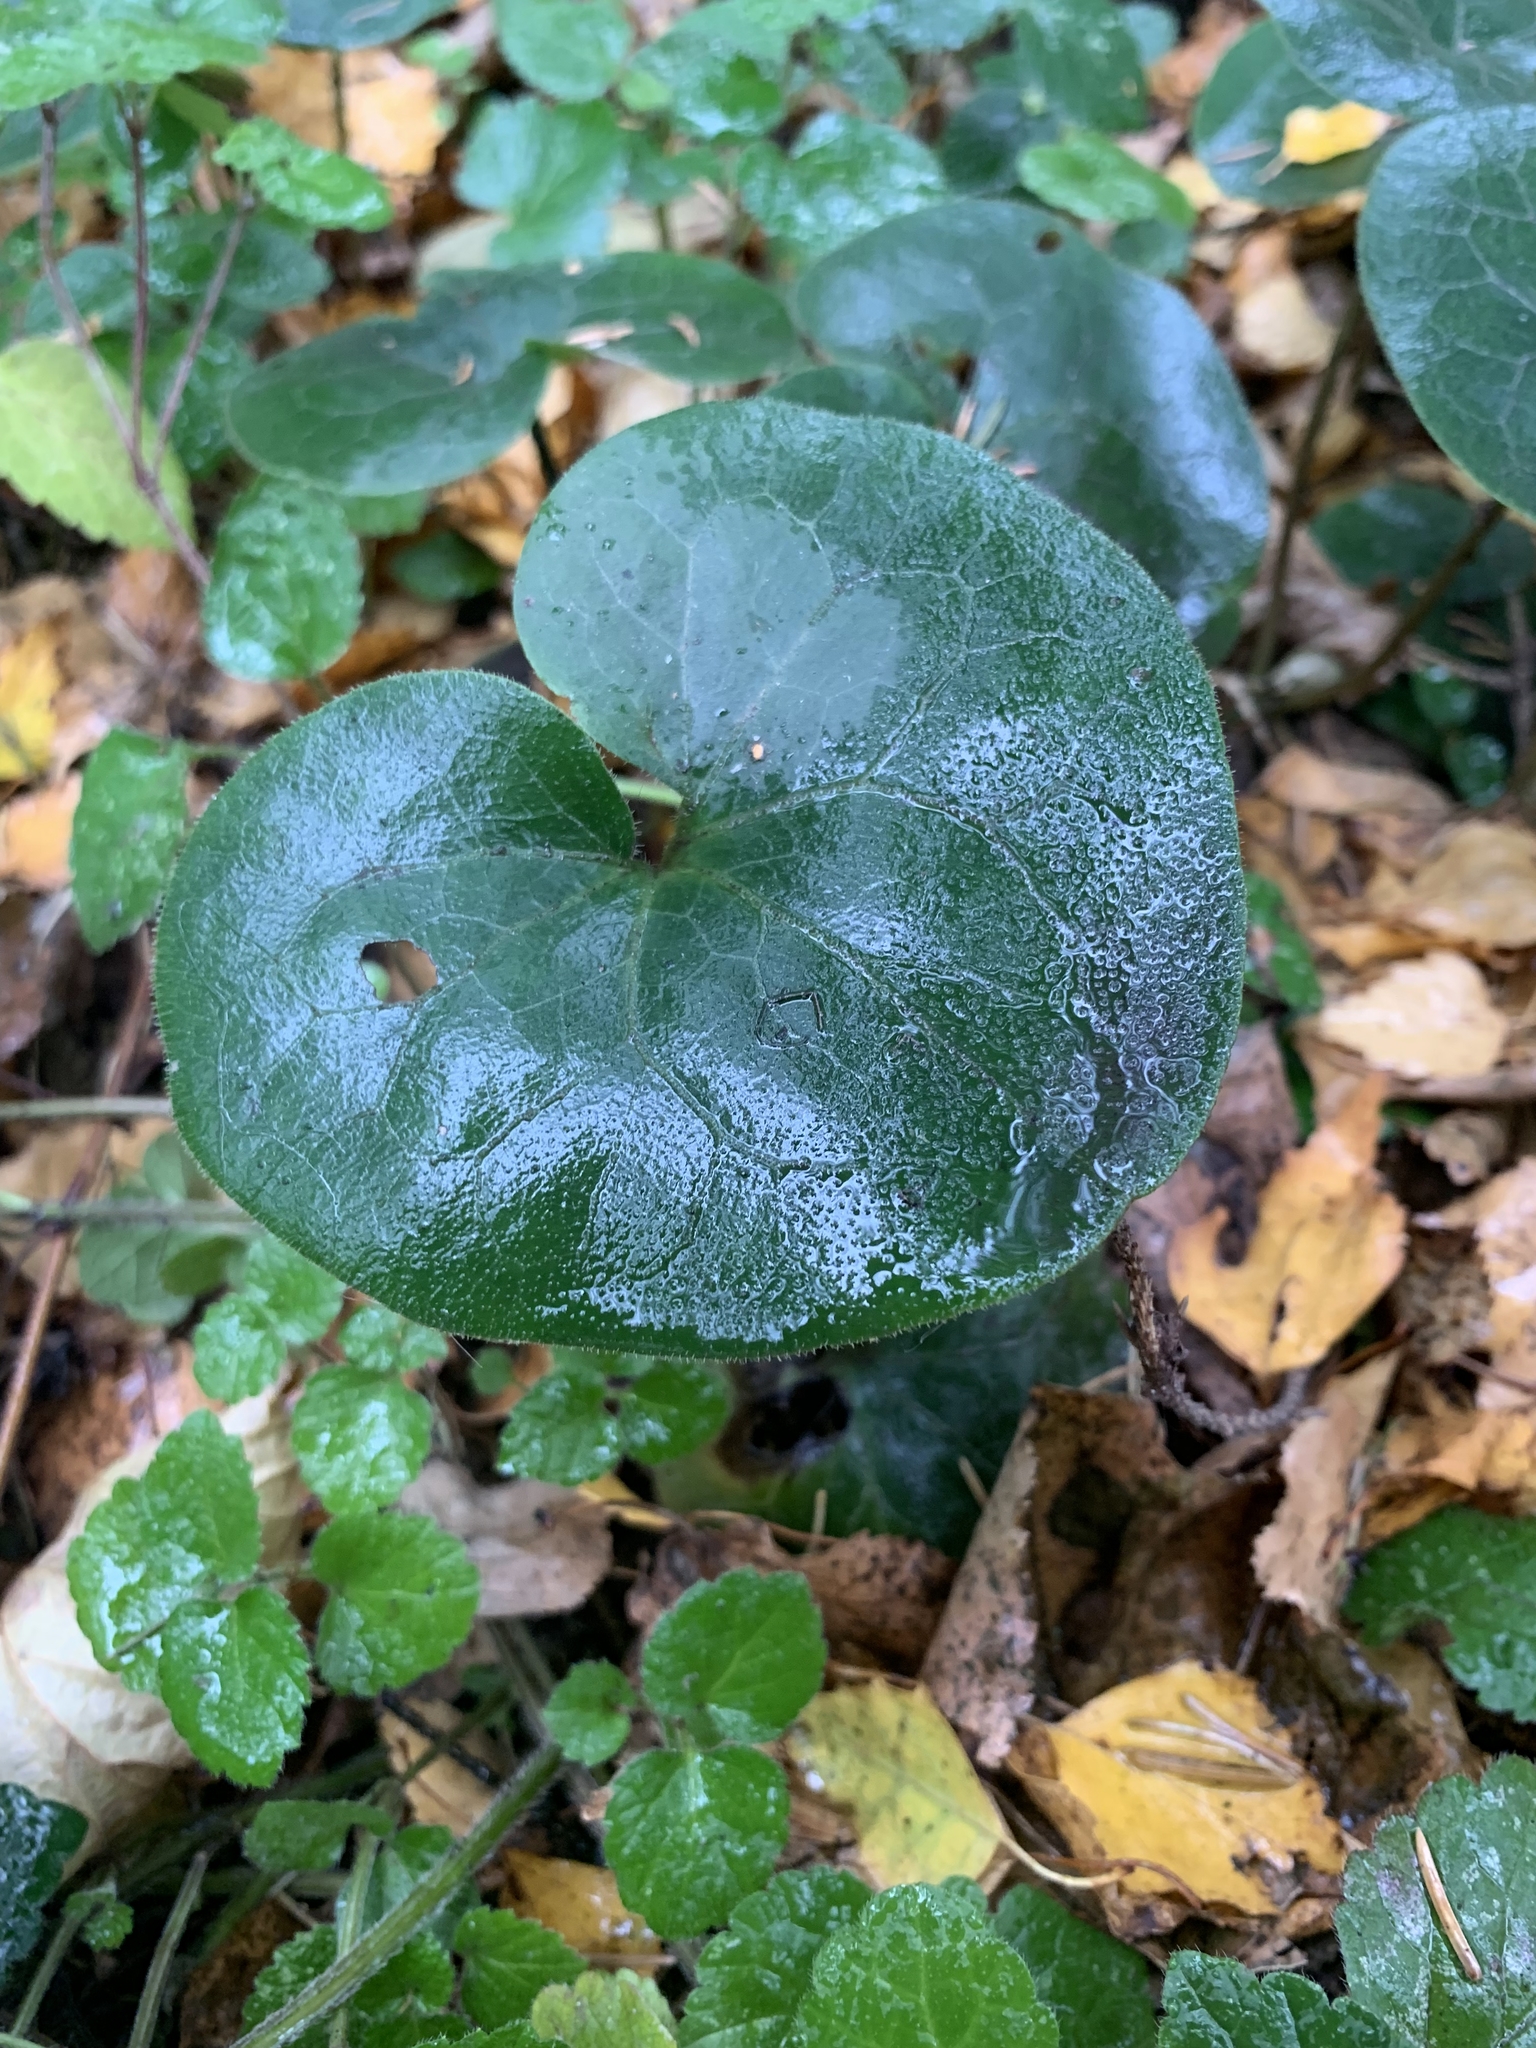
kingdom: Plantae
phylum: Tracheophyta
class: Magnoliopsida
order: Piperales
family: Aristolochiaceae
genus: Asarum
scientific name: Asarum europaeum
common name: Asarabacca
